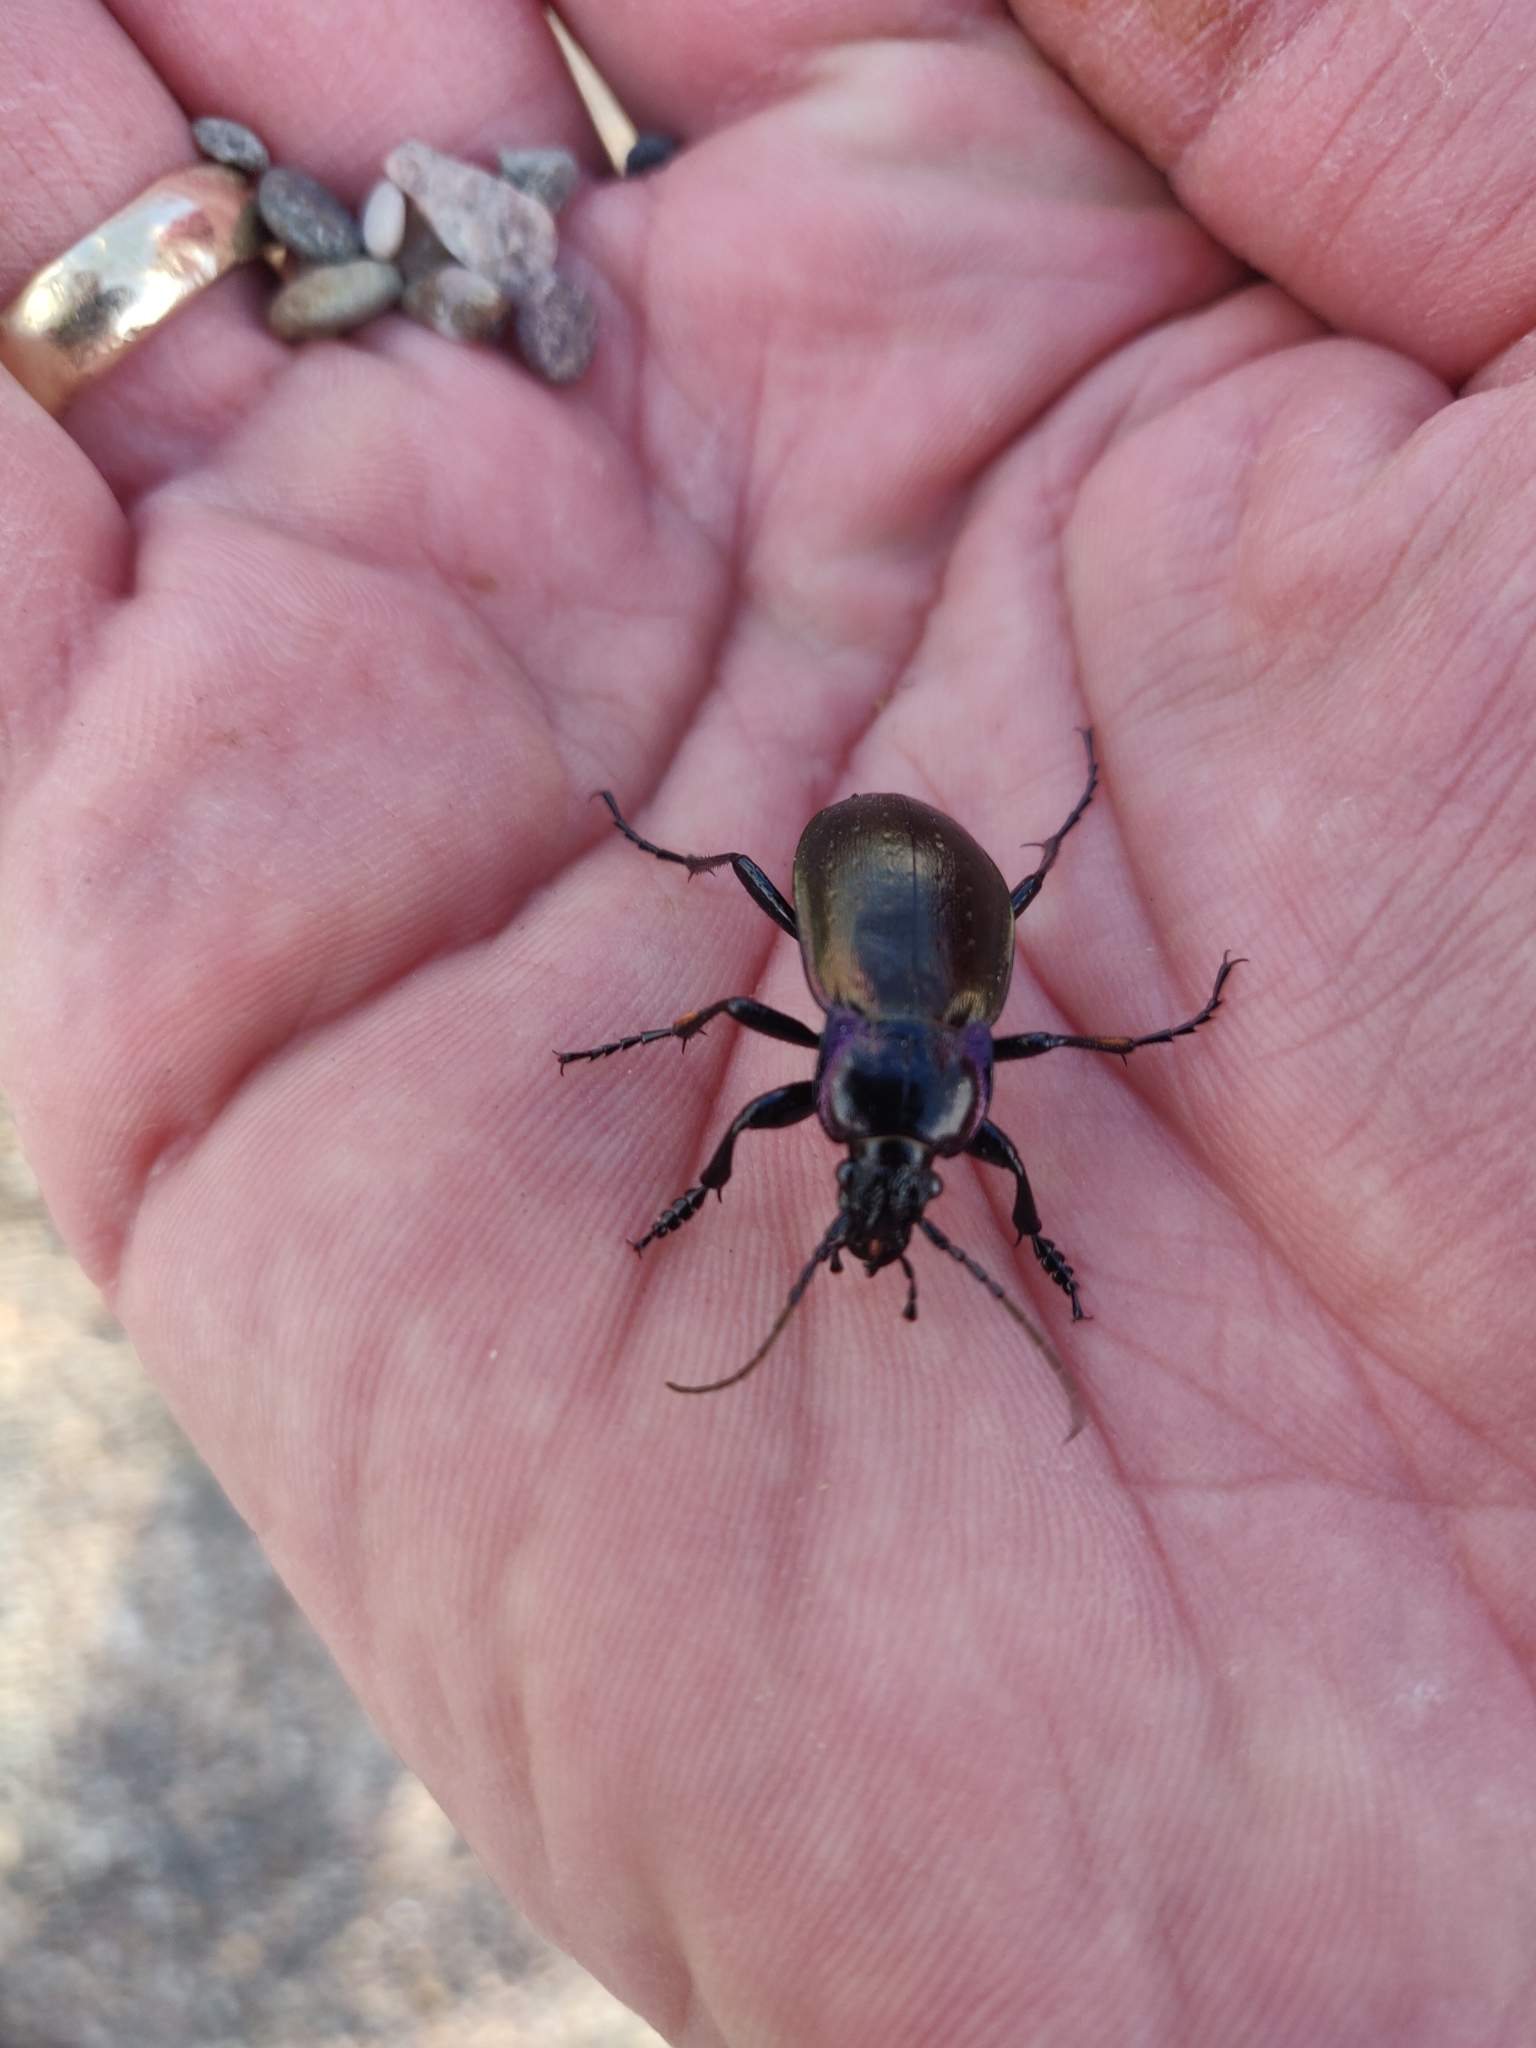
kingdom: Animalia
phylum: Arthropoda
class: Insecta
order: Coleoptera
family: Carabidae
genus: Carabus
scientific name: Carabus nemoralis
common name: European ground beetle
